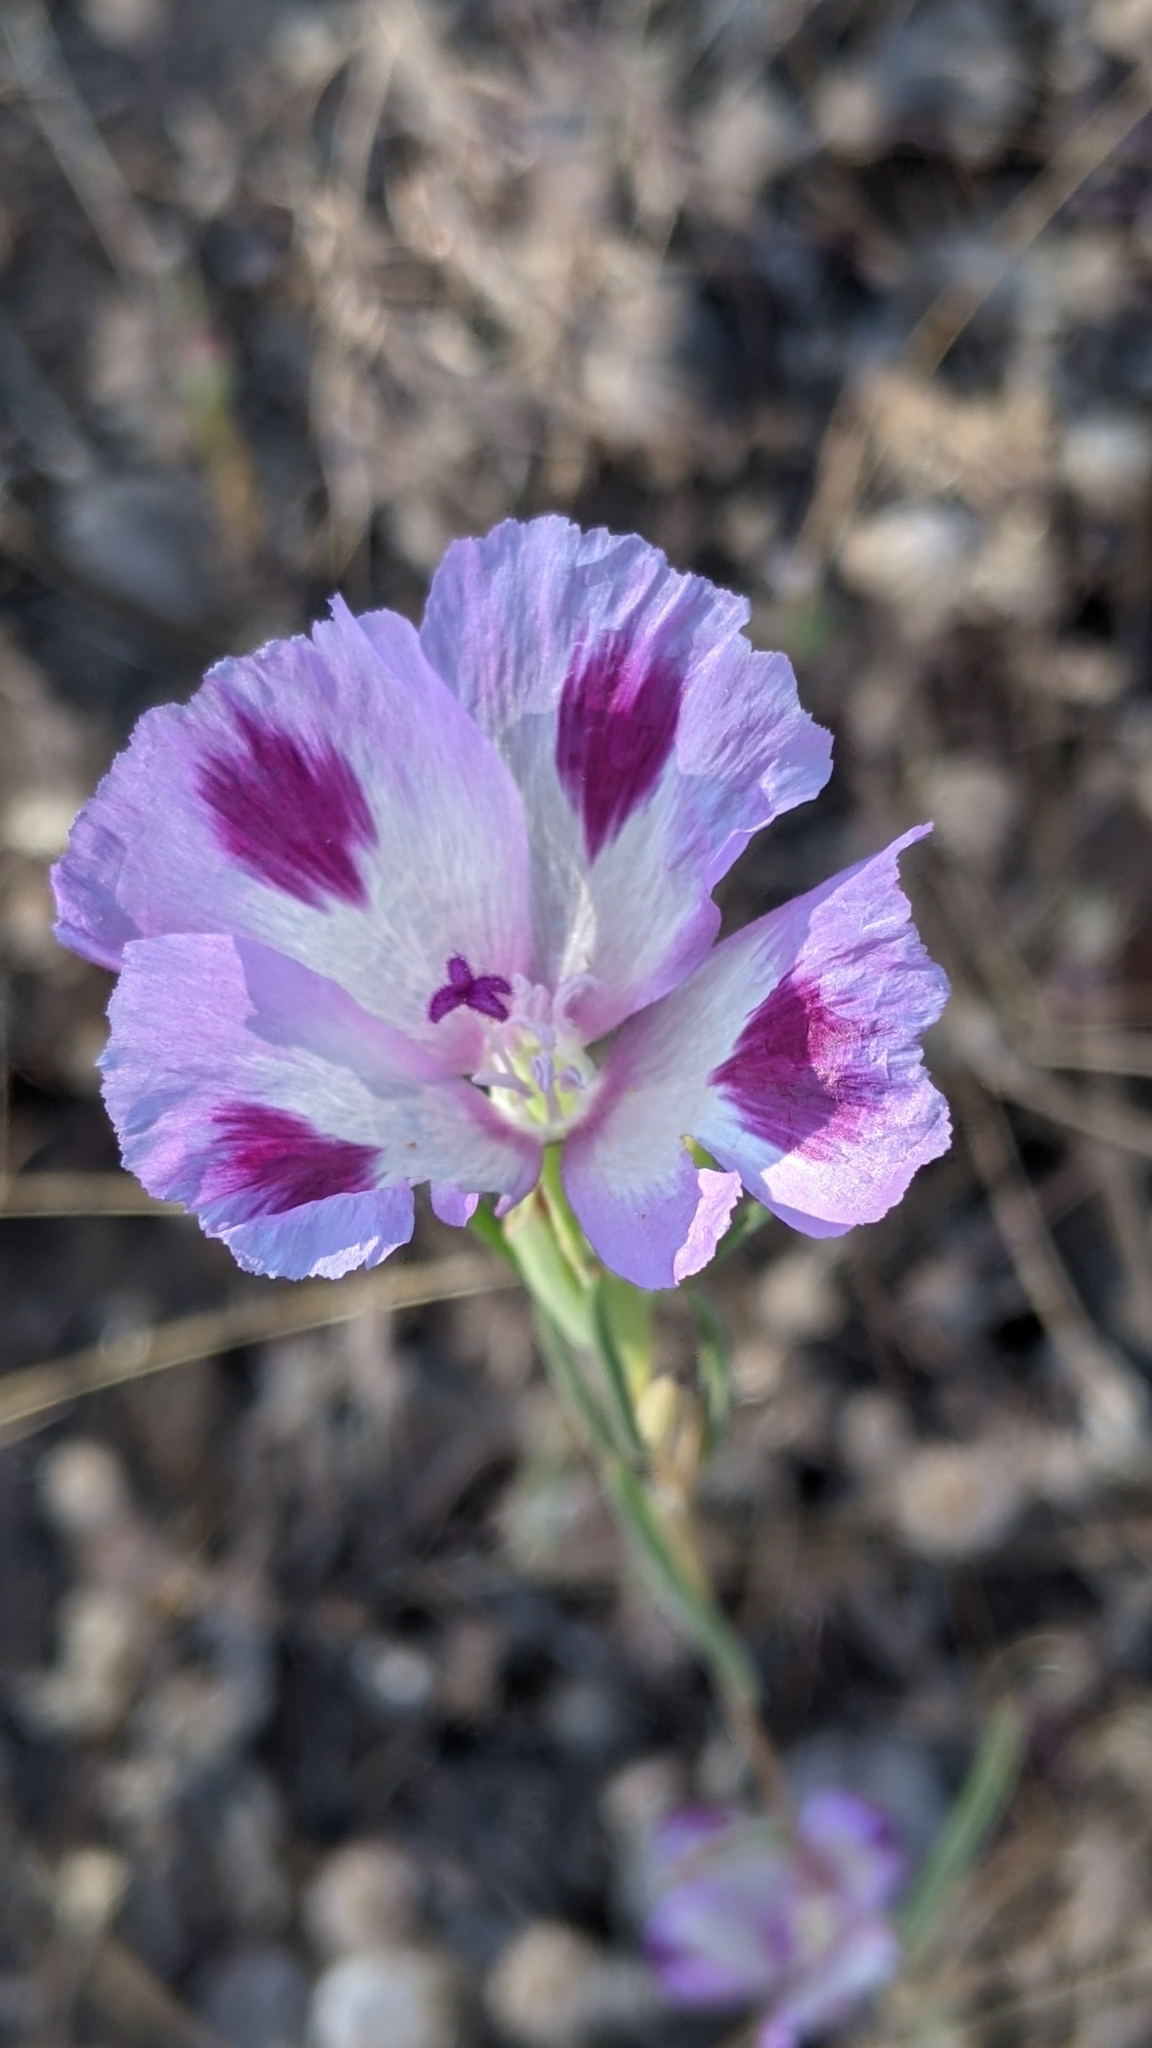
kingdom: Plantae
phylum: Tracheophyta
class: Magnoliopsida
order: Myrtales
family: Onagraceae
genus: Clarkia
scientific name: Clarkia williamsonii
